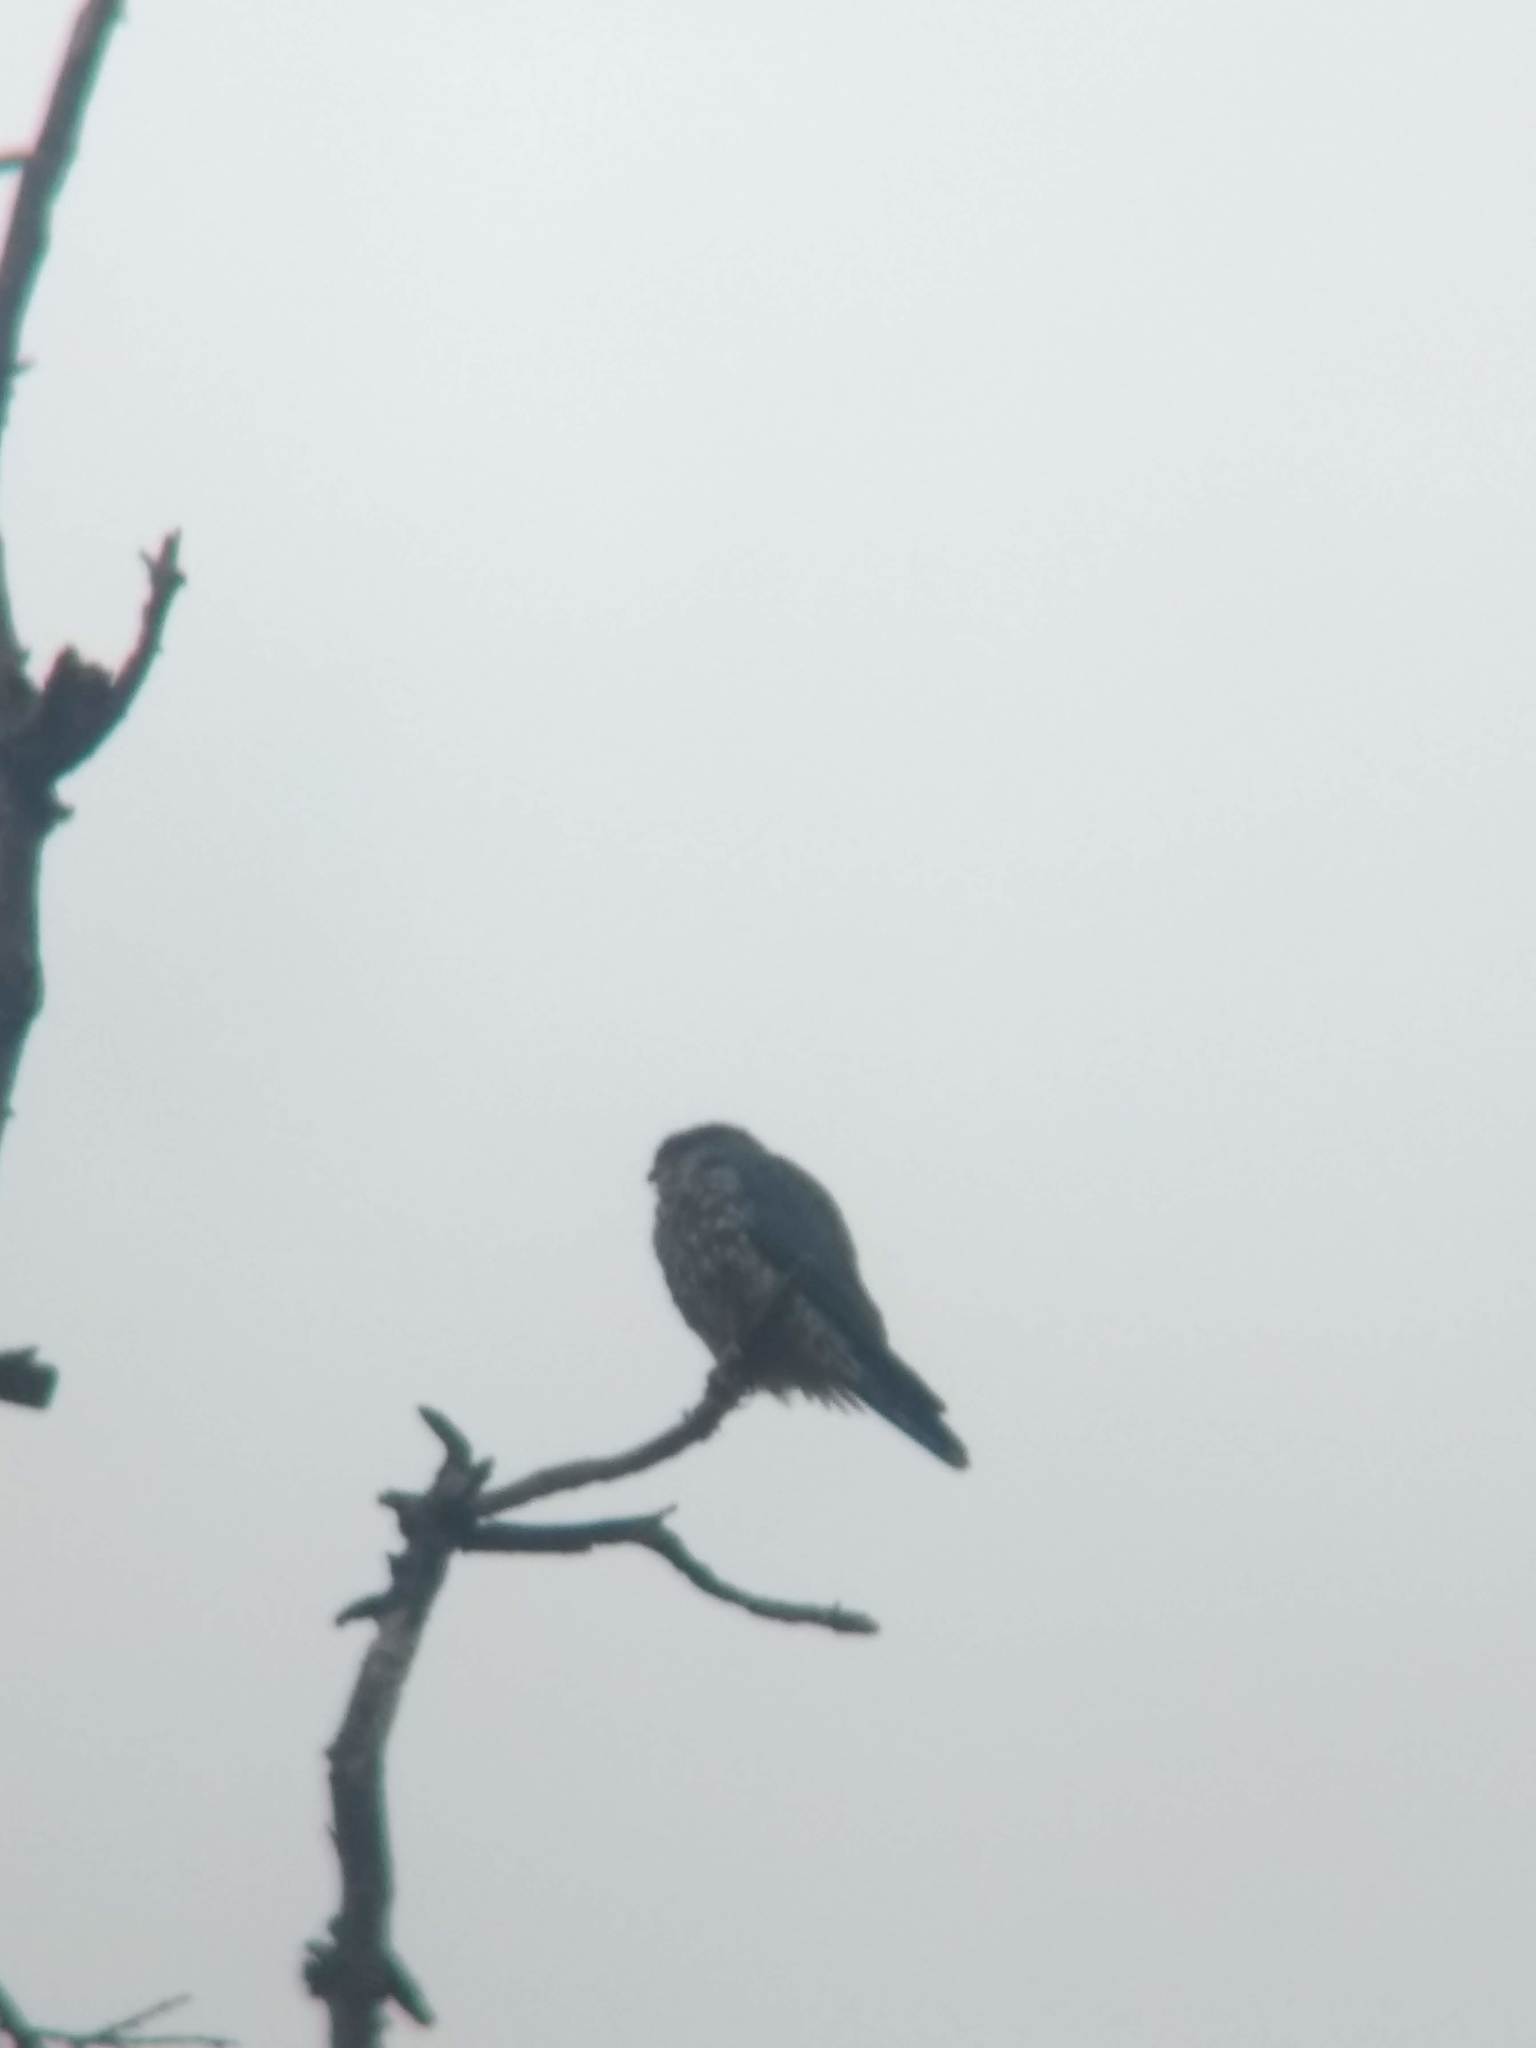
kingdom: Animalia
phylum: Chordata
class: Aves
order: Falconiformes
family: Falconidae
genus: Falco
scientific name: Falco columbarius
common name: Merlin
